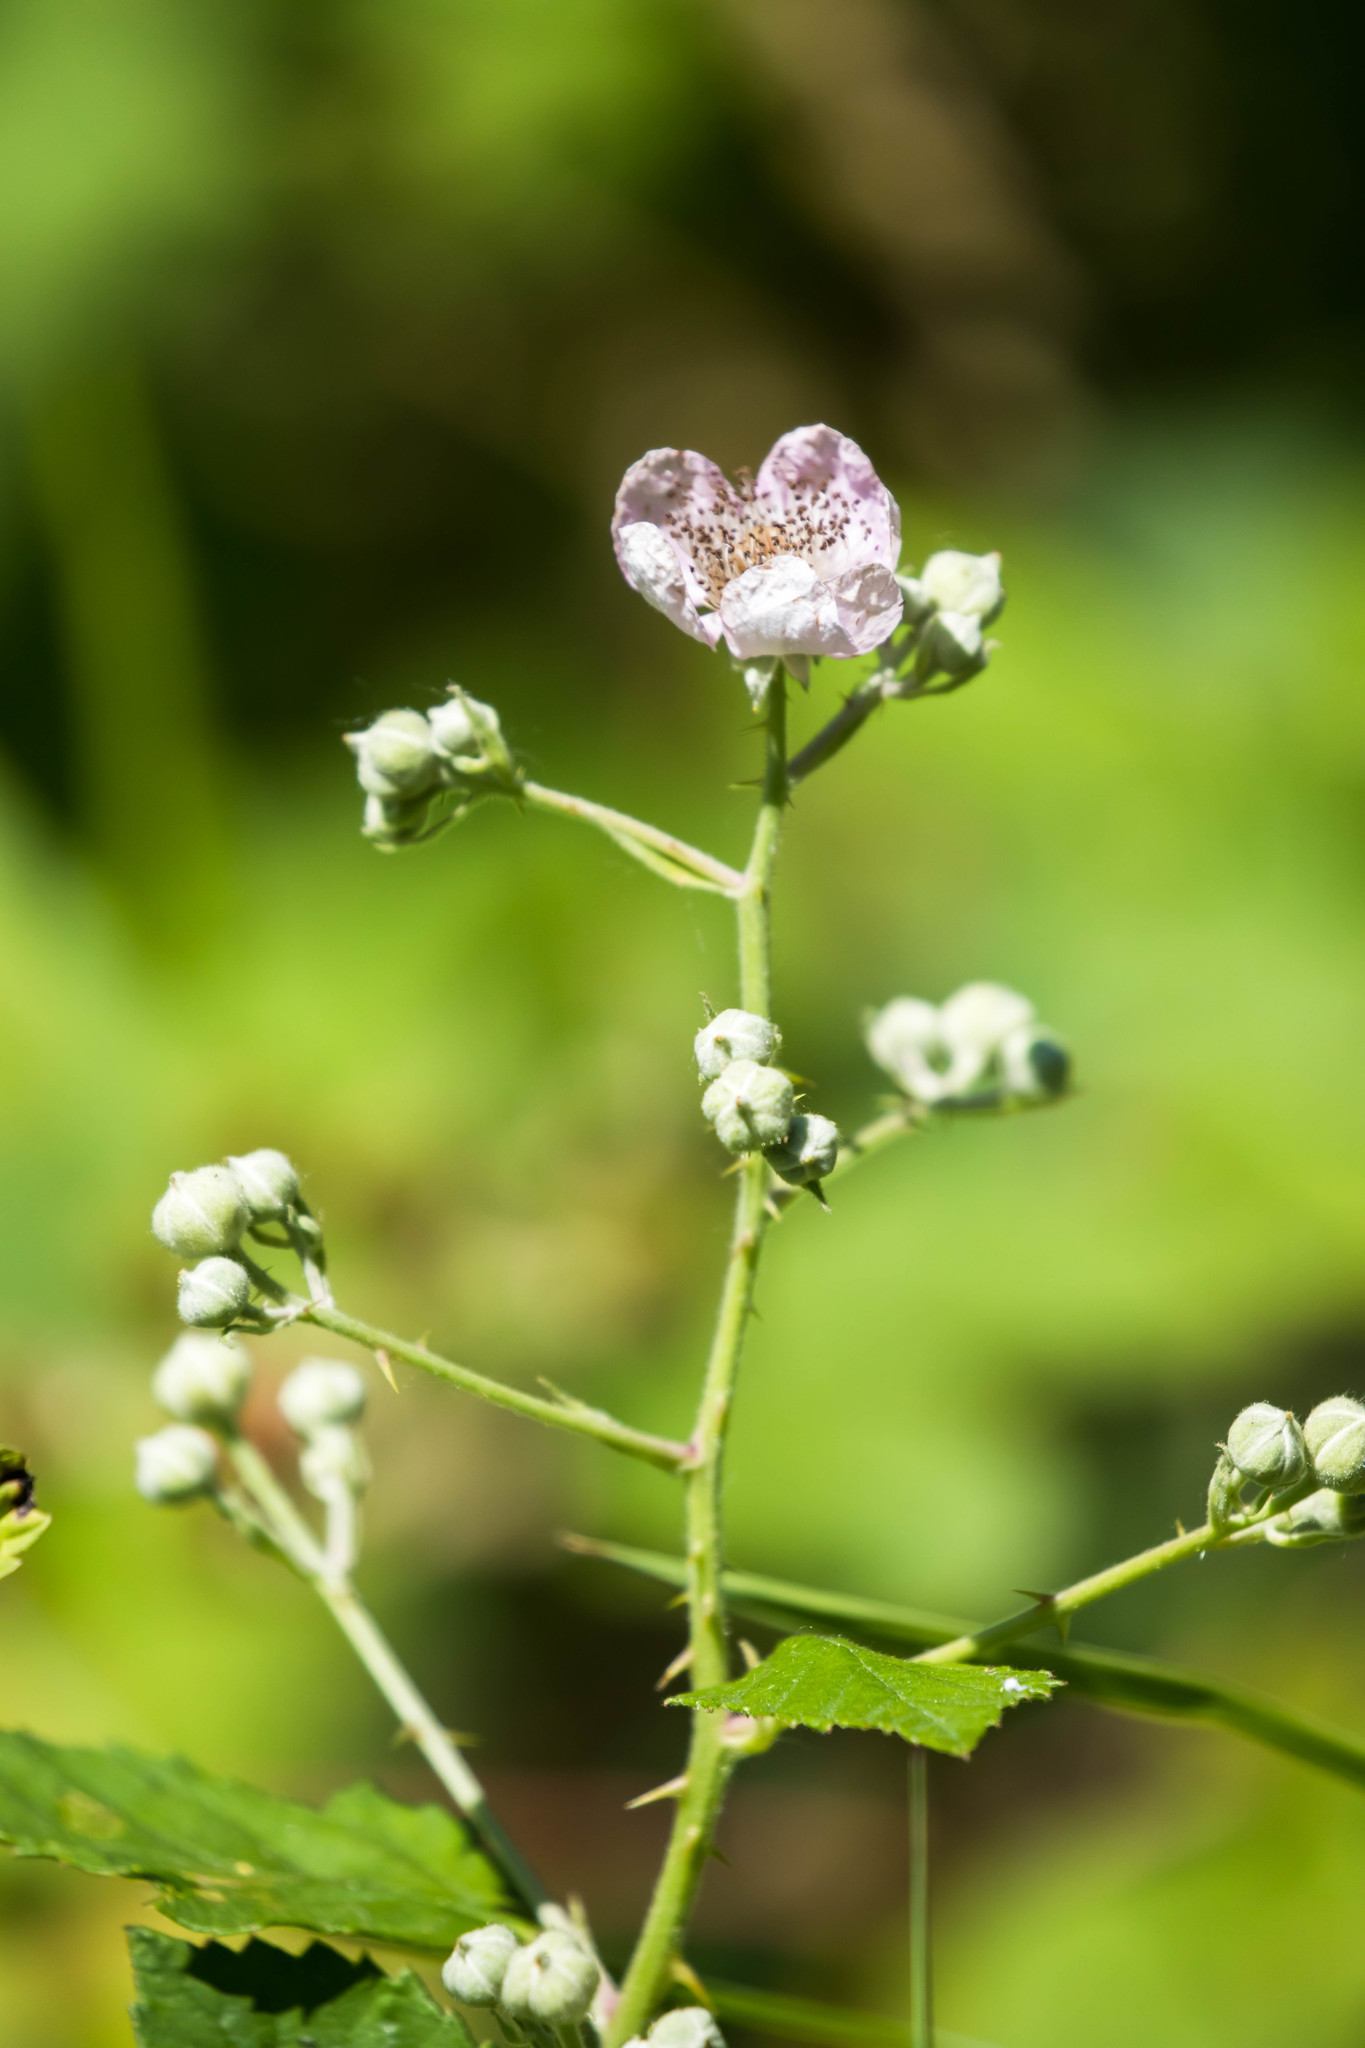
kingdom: Plantae
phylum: Tracheophyta
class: Magnoliopsida
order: Rosales
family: Rosaceae
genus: Rubus
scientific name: Rubus bifrons
